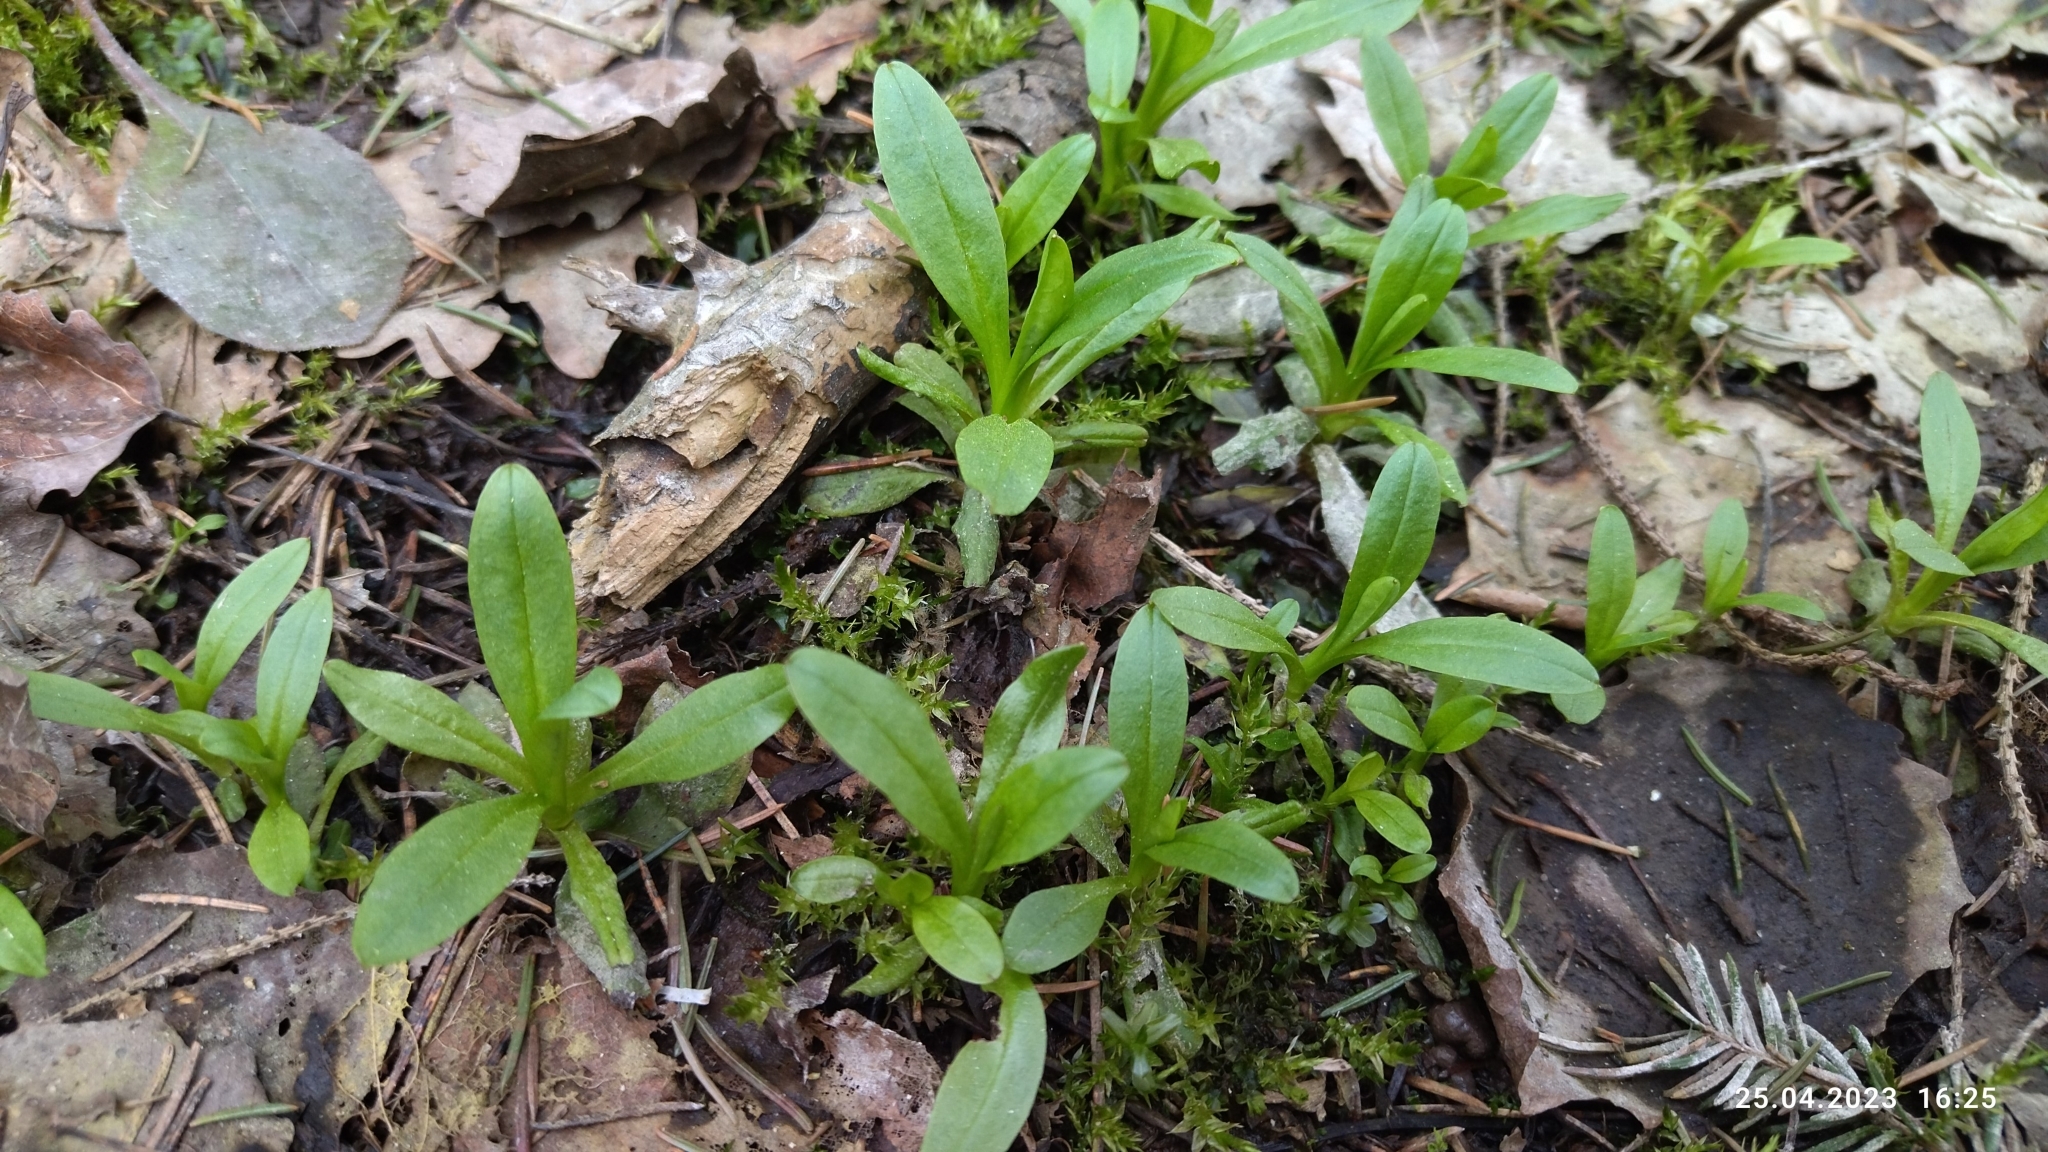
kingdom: Plantae
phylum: Tracheophyta
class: Magnoliopsida
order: Boraginales
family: Boraginaceae
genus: Myosotis
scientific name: Myosotis scorpioides
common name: Water forget-me-not
